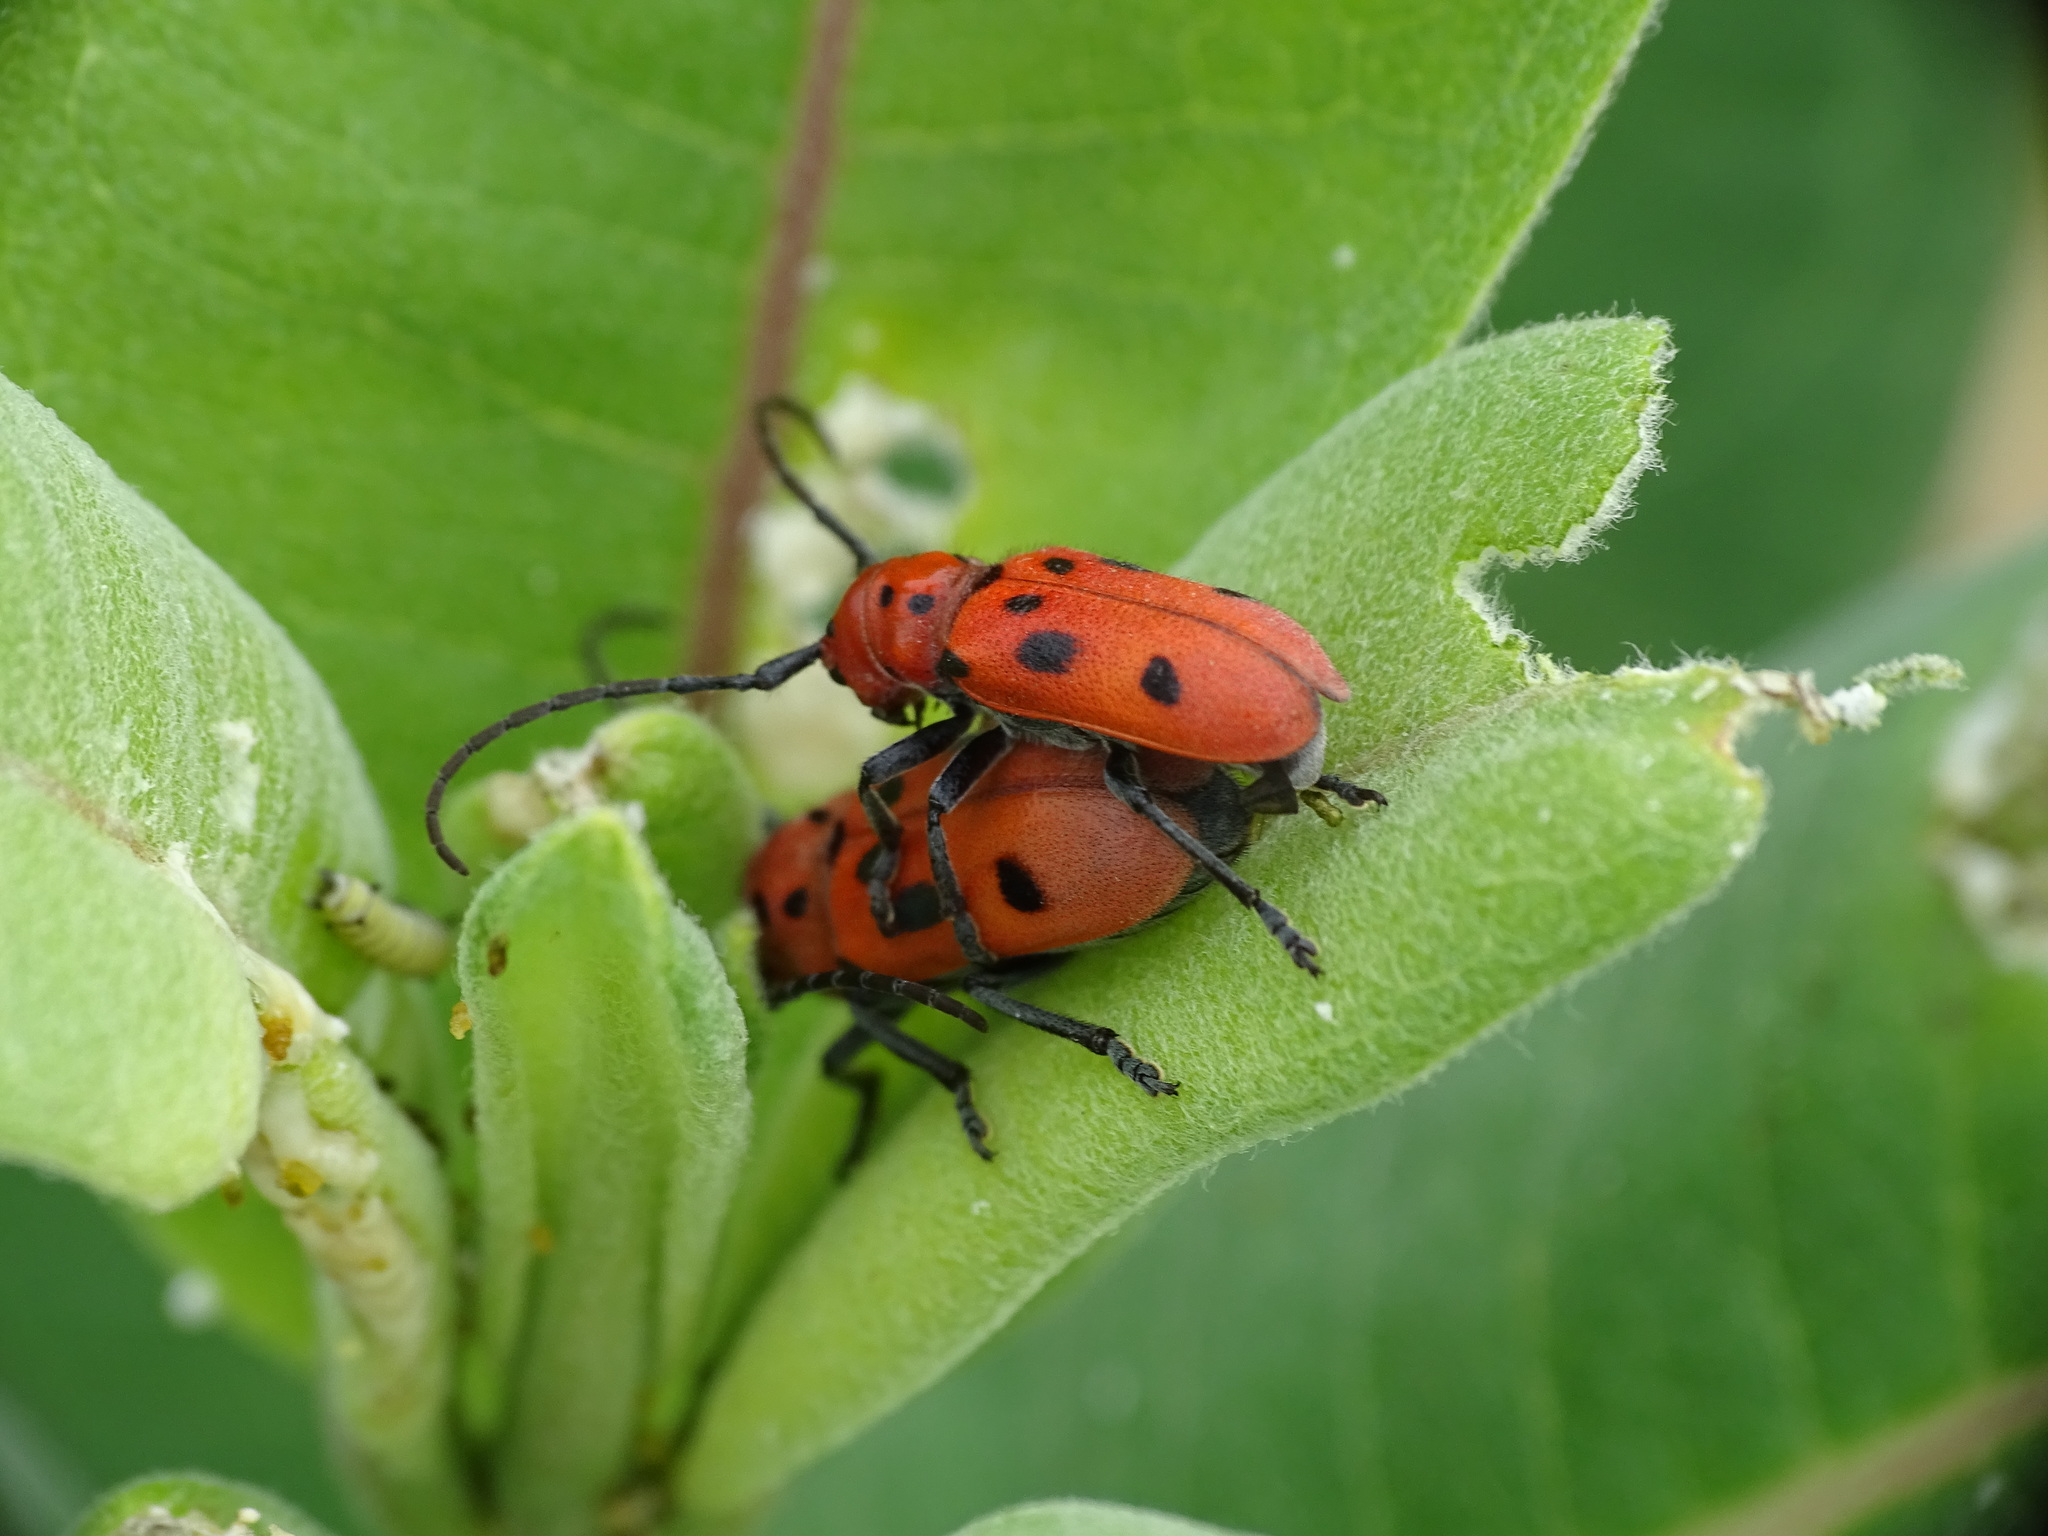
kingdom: Animalia
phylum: Arthropoda
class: Insecta
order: Coleoptera
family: Cerambycidae
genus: Tetraopes
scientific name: Tetraopes tetrophthalmus
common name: Red milkweed beetle
